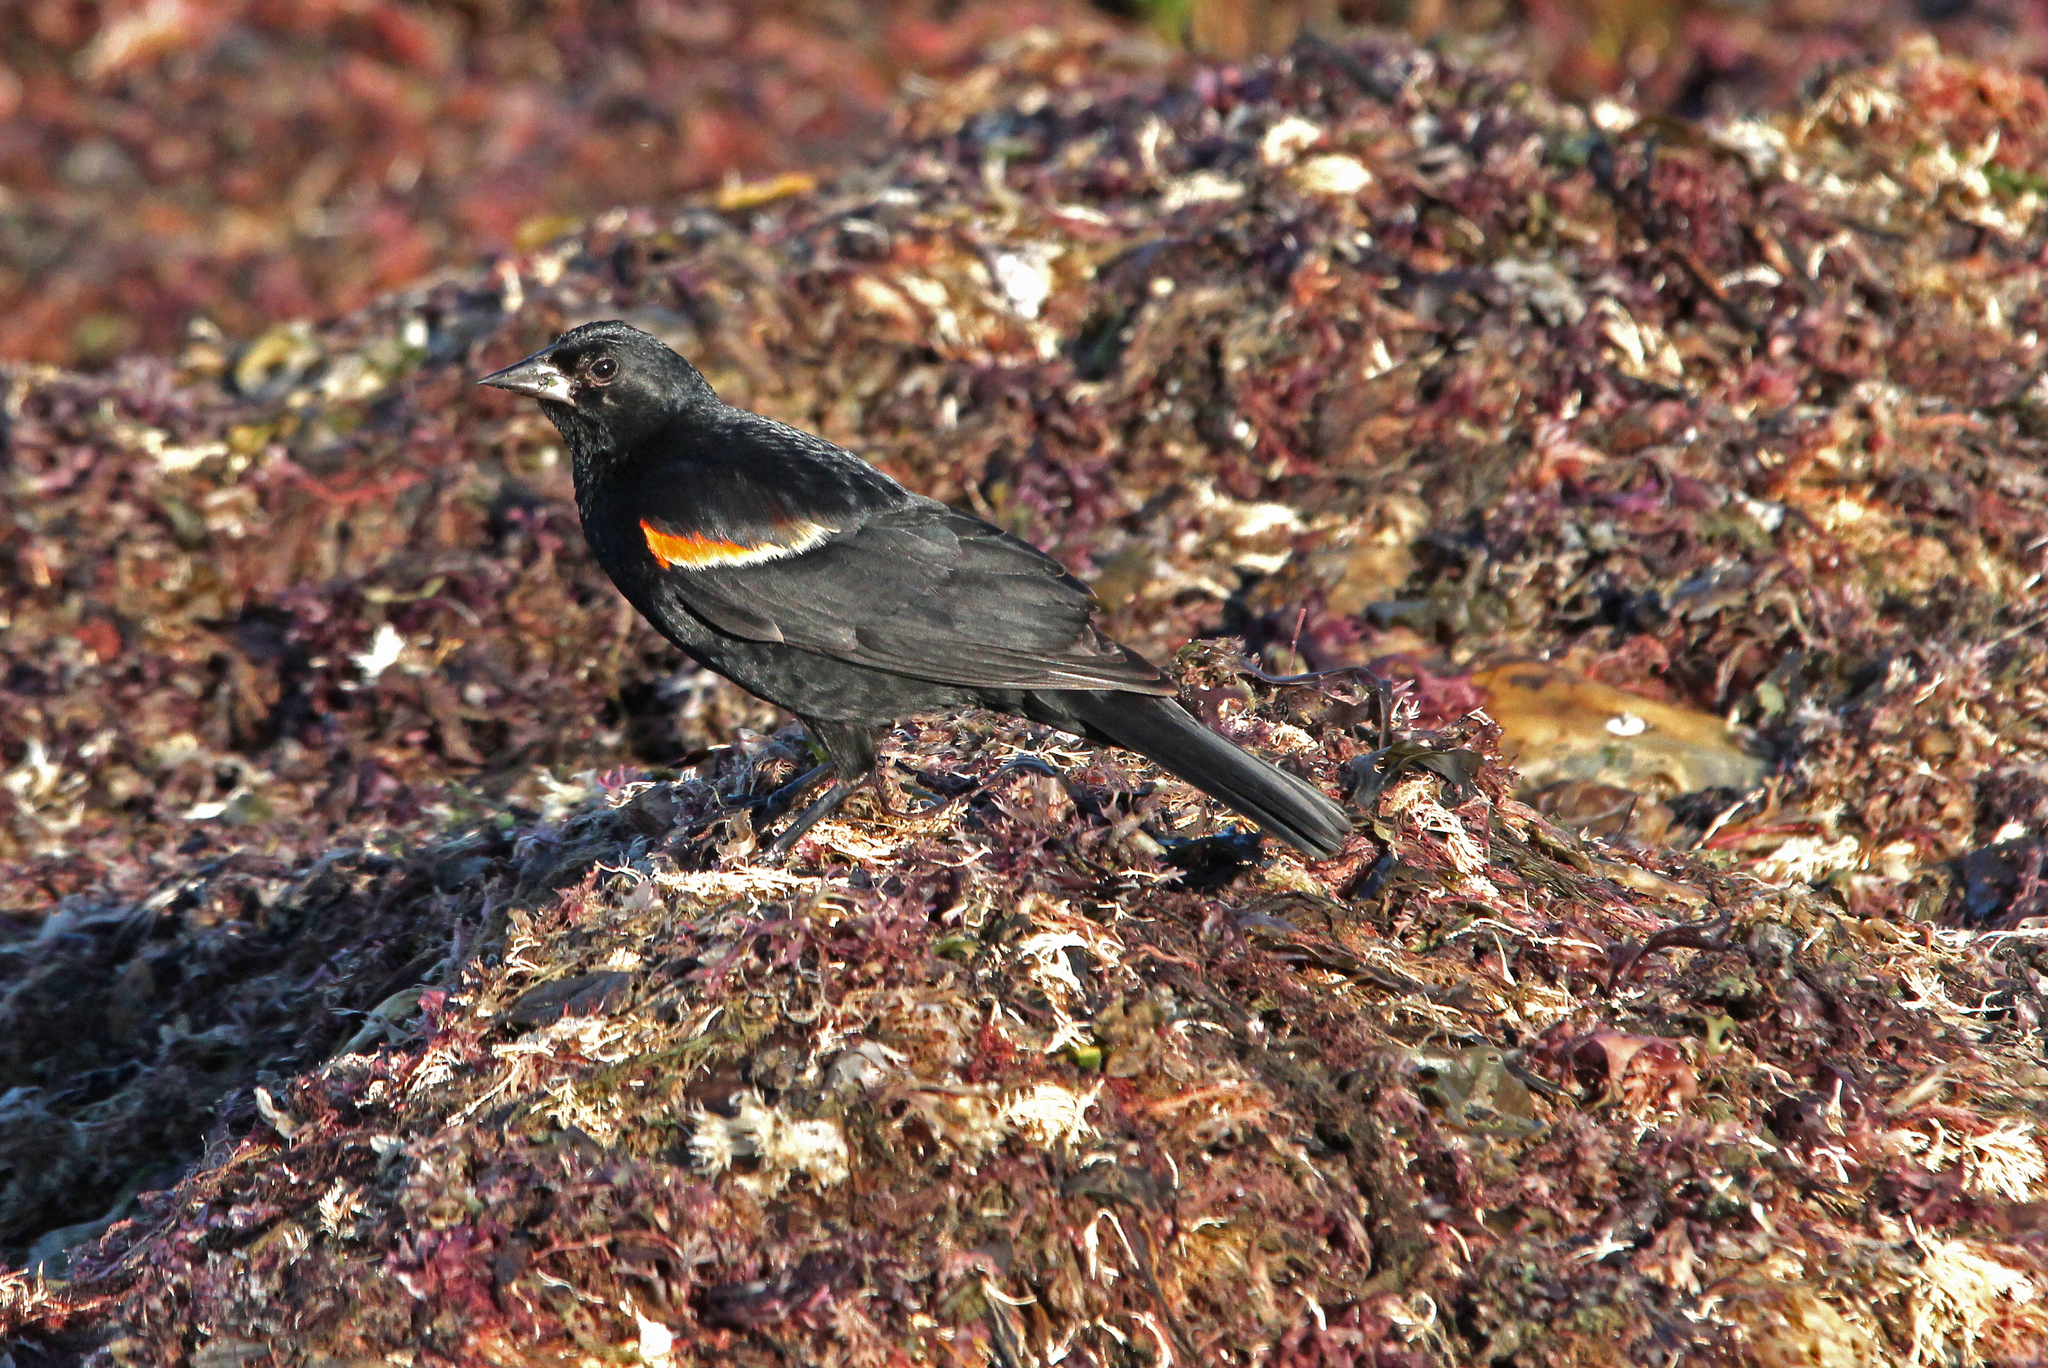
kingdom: Animalia
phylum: Chordata
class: Aves
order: Passeriformes
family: Icteridae
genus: Agelaius
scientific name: Agelaius phoeniceus
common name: Red-winged blackbird
